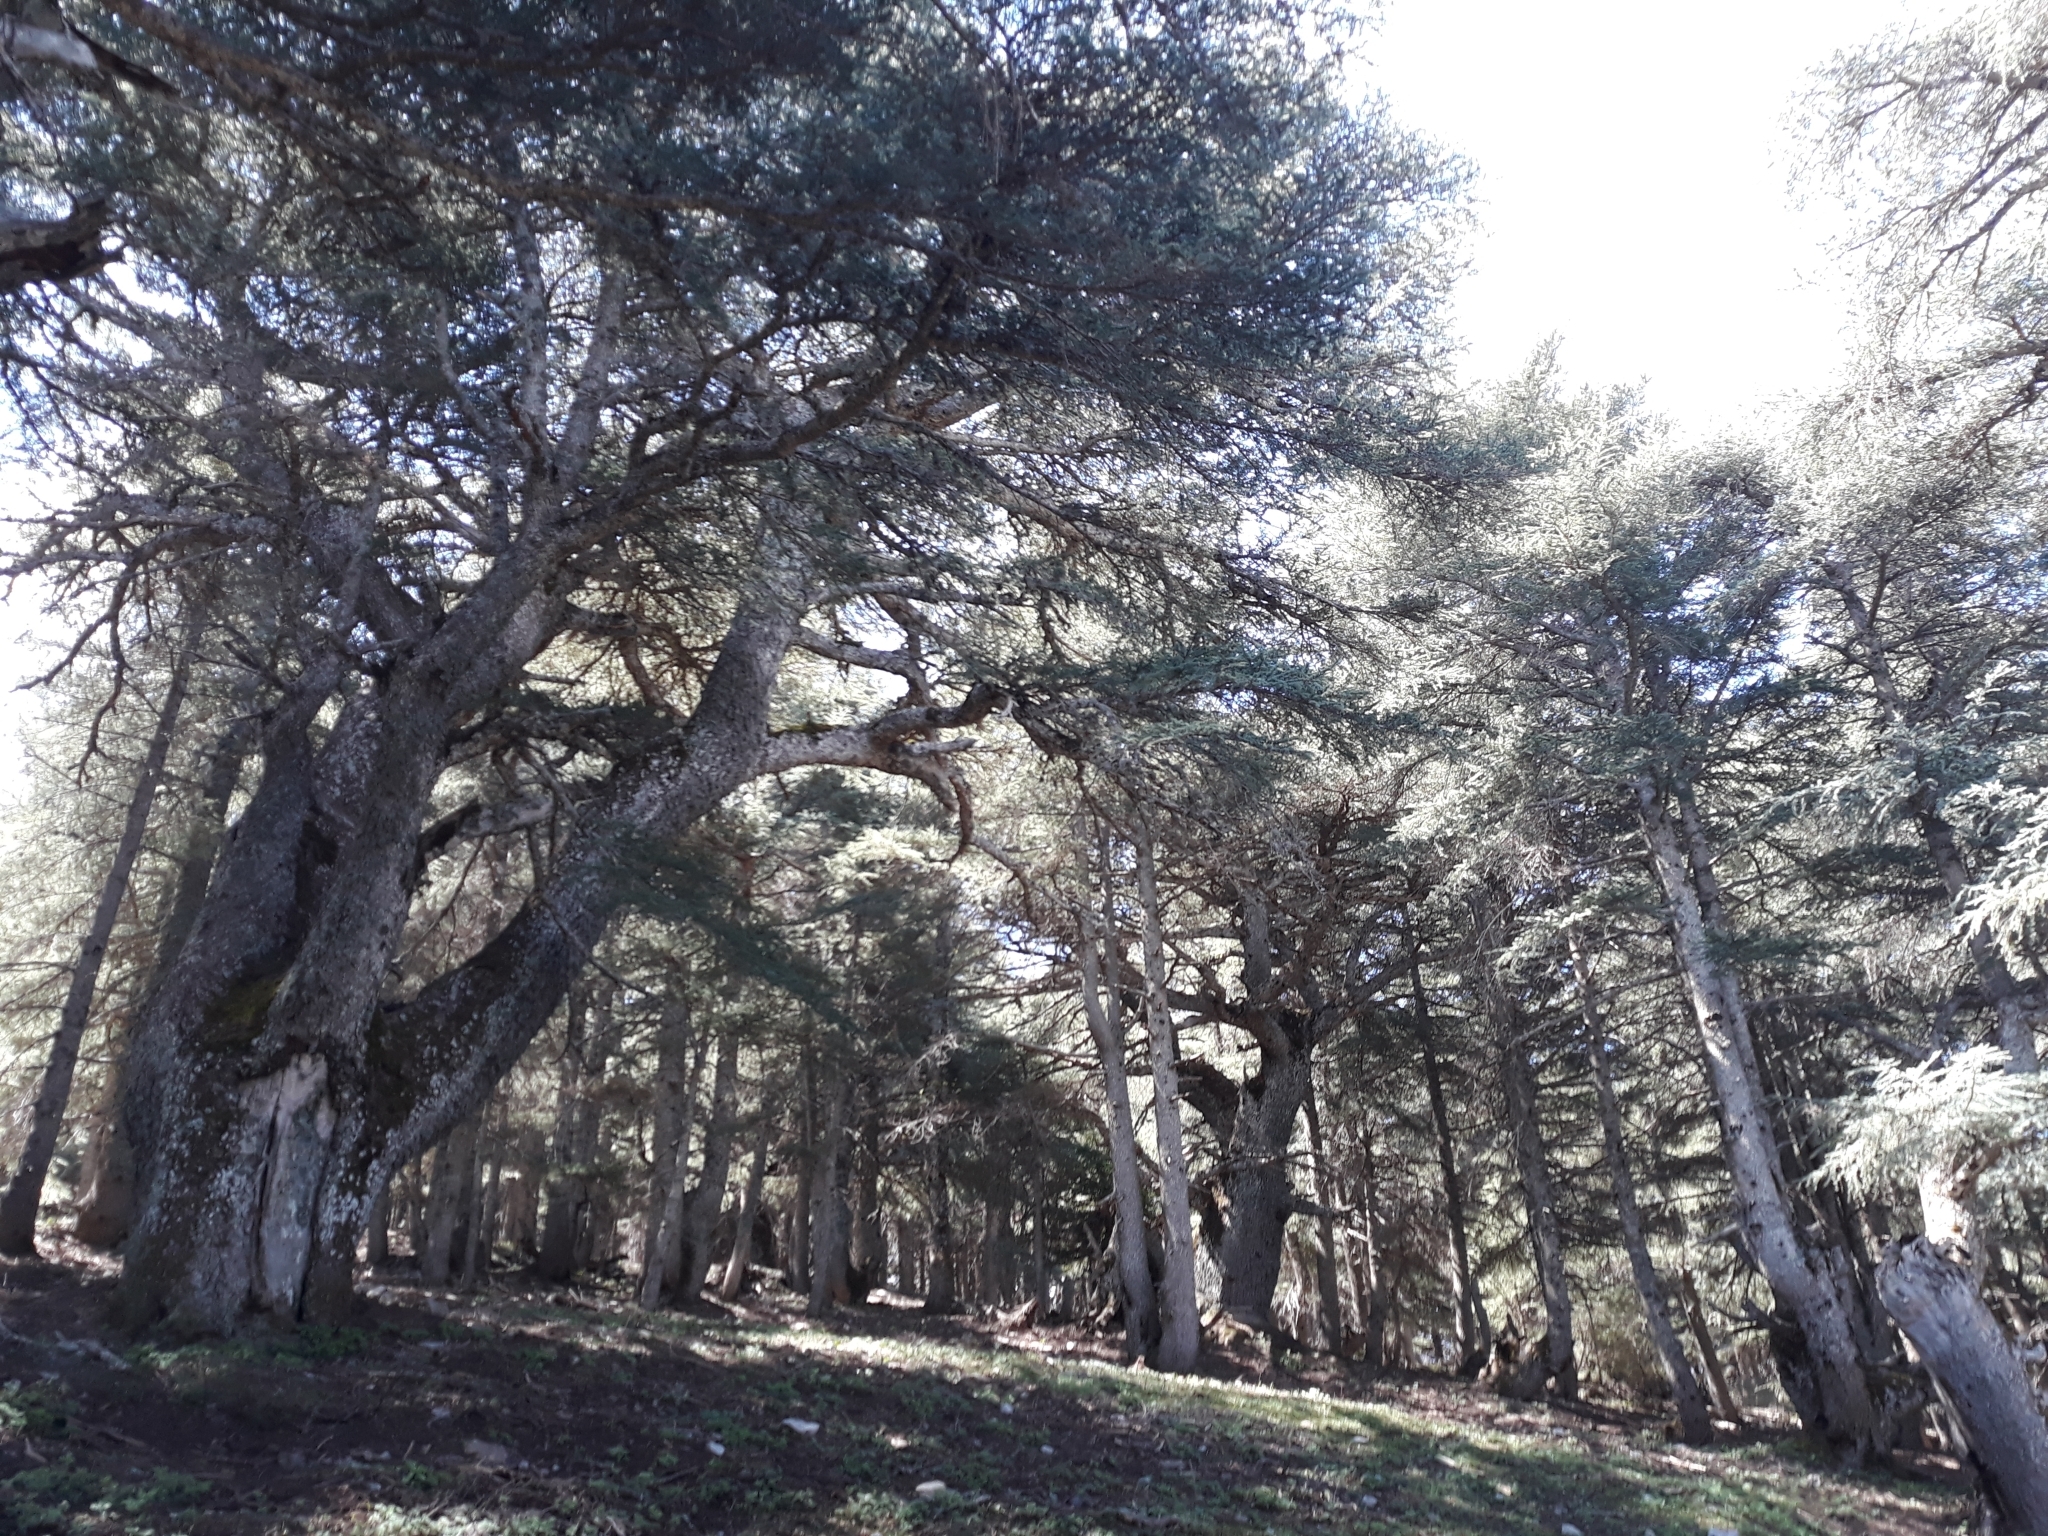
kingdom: Plantae
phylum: Tracheophyta
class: Pinopsida
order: Pinales
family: Pinaceae
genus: Cedrus
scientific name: Cedrus atlantica
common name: Atlas cedar
